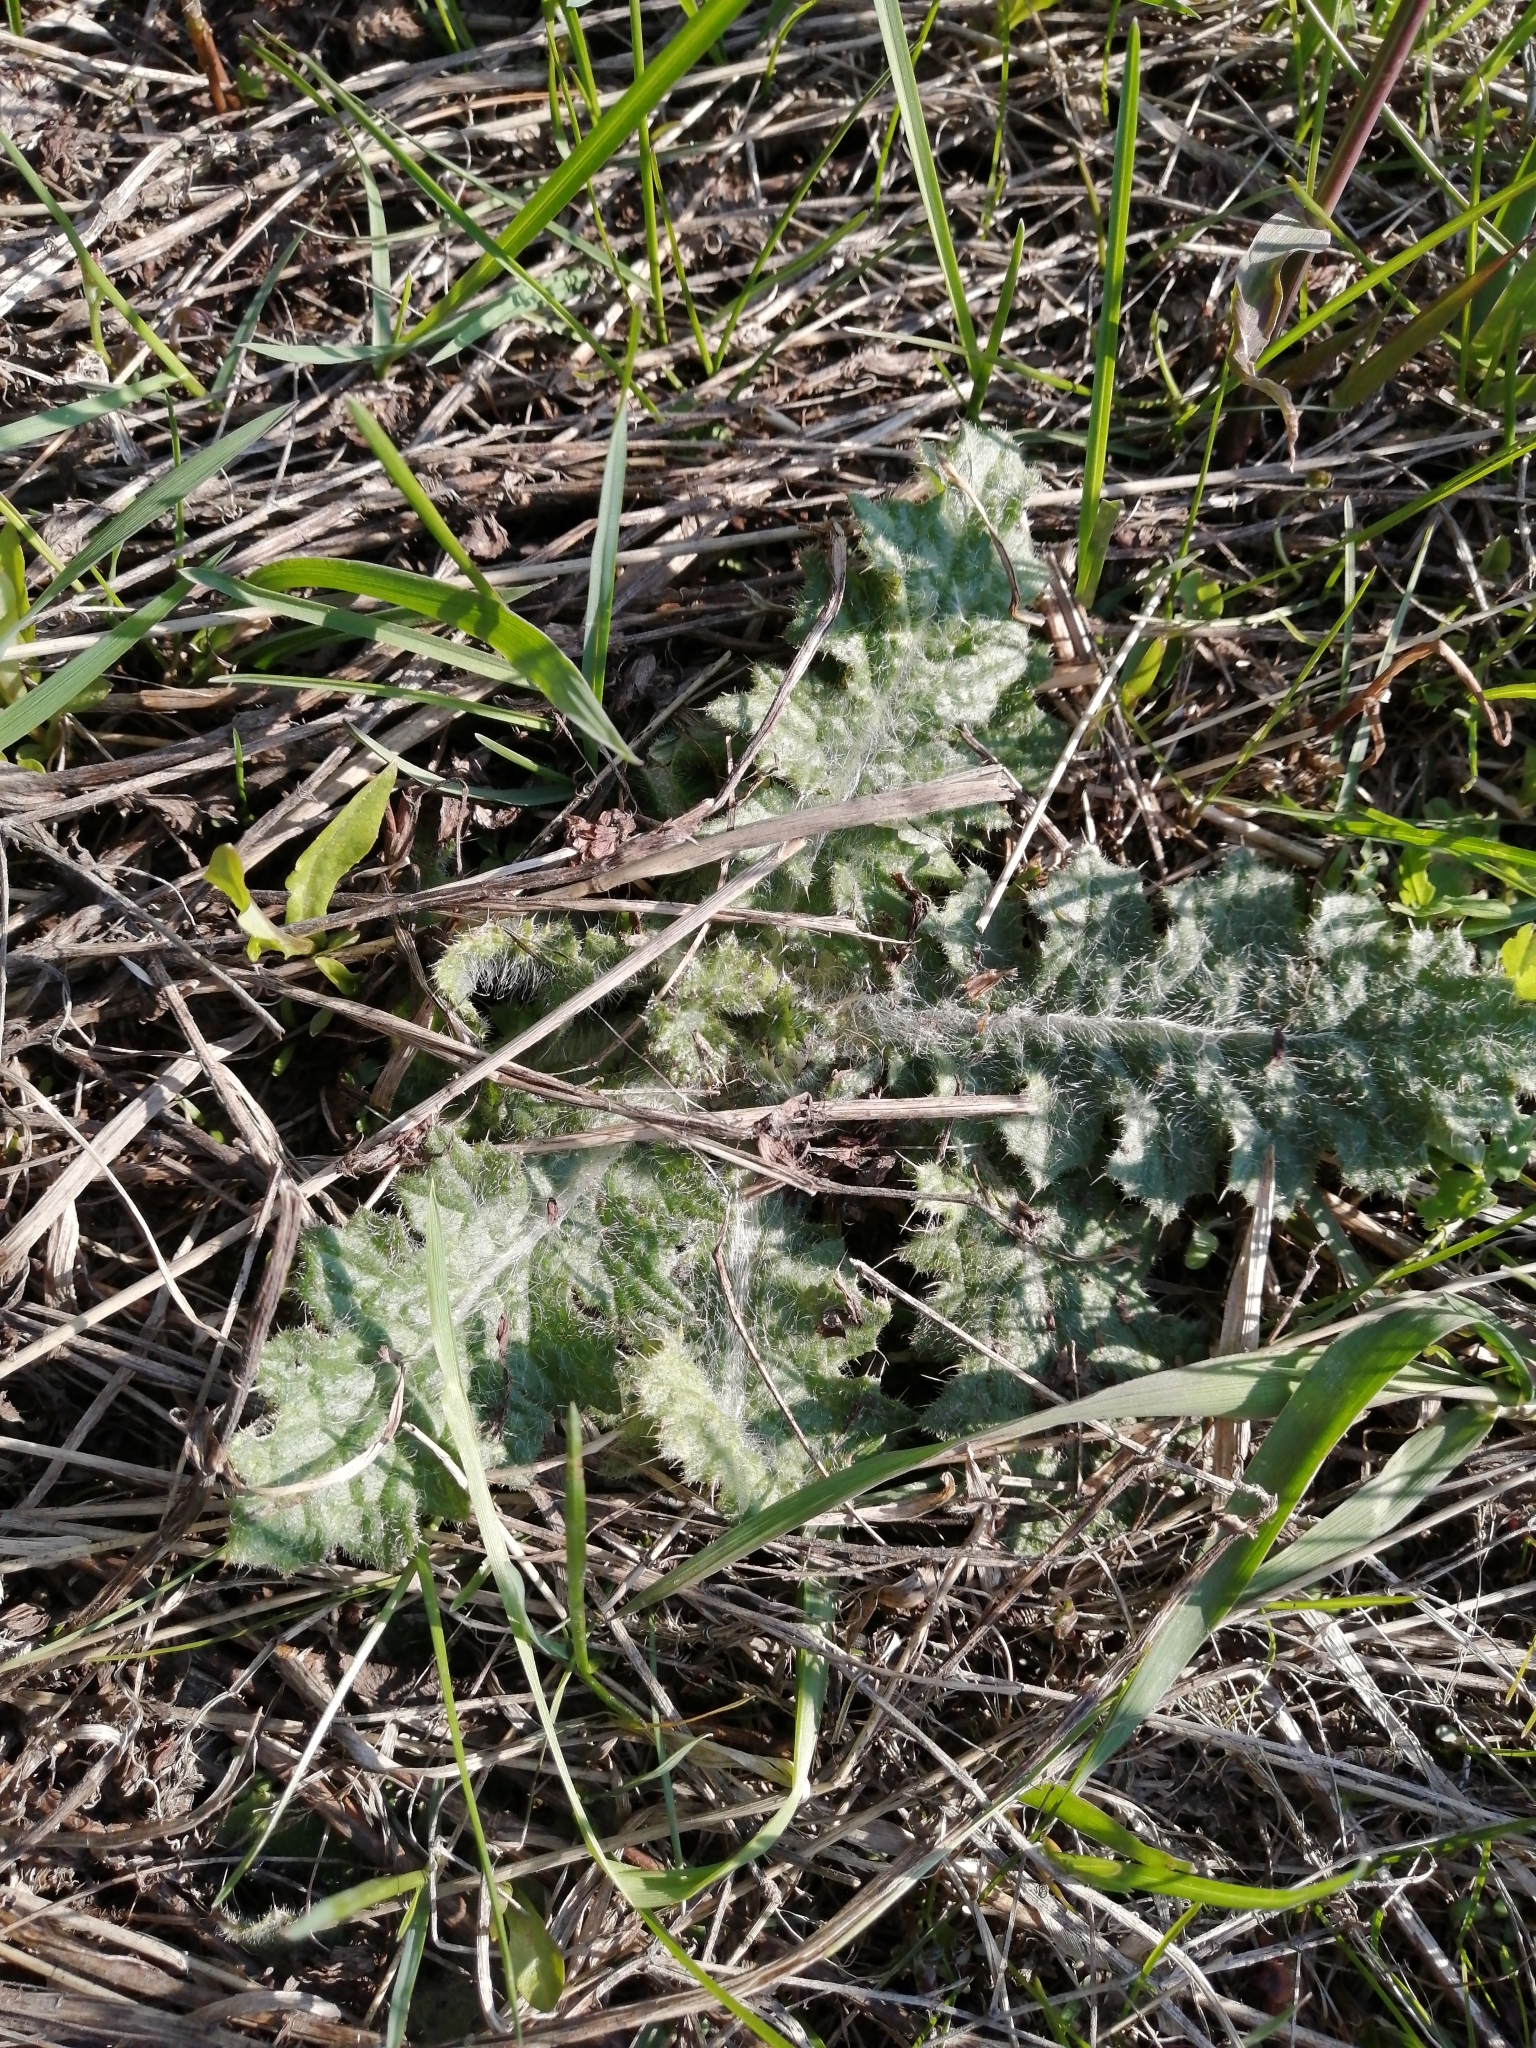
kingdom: Plantae
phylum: Tracheophyta
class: Magnoliopsida
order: Asterales
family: Asteraceae
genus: Cirsium
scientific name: Cirsium vulgare
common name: Bull thistle
